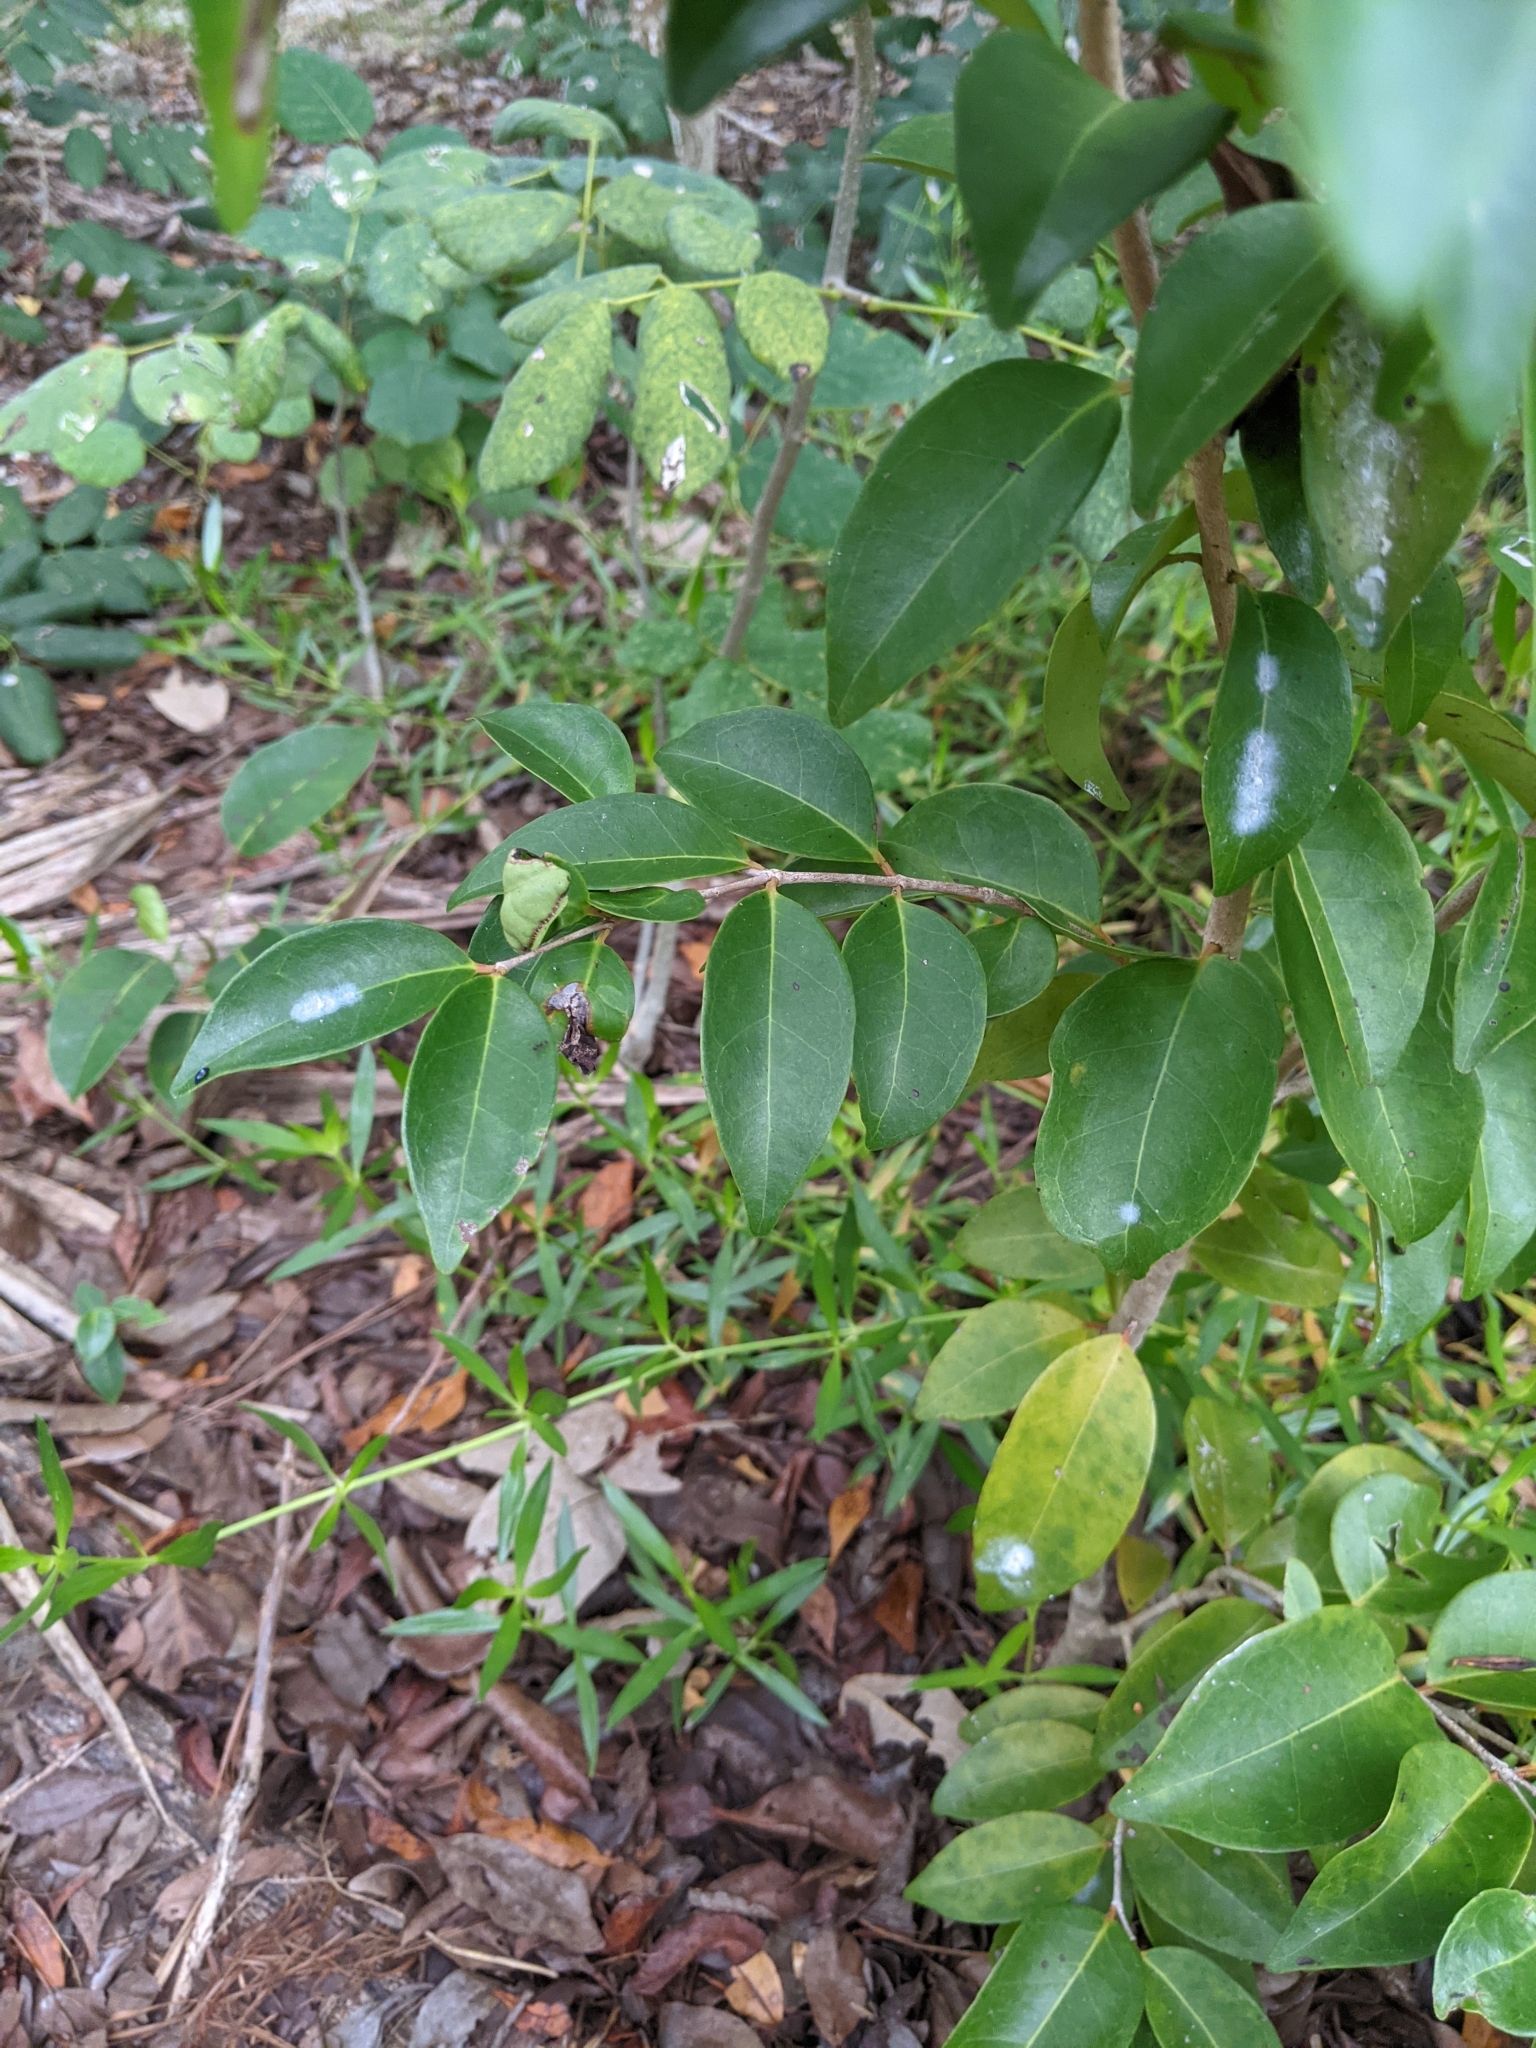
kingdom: Plantae
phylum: Tracheophyta
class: Magnoliopsida
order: Myrtales
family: Myrtaceae
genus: Eugenia
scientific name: Eugenia axillaris
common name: Choaky berry
